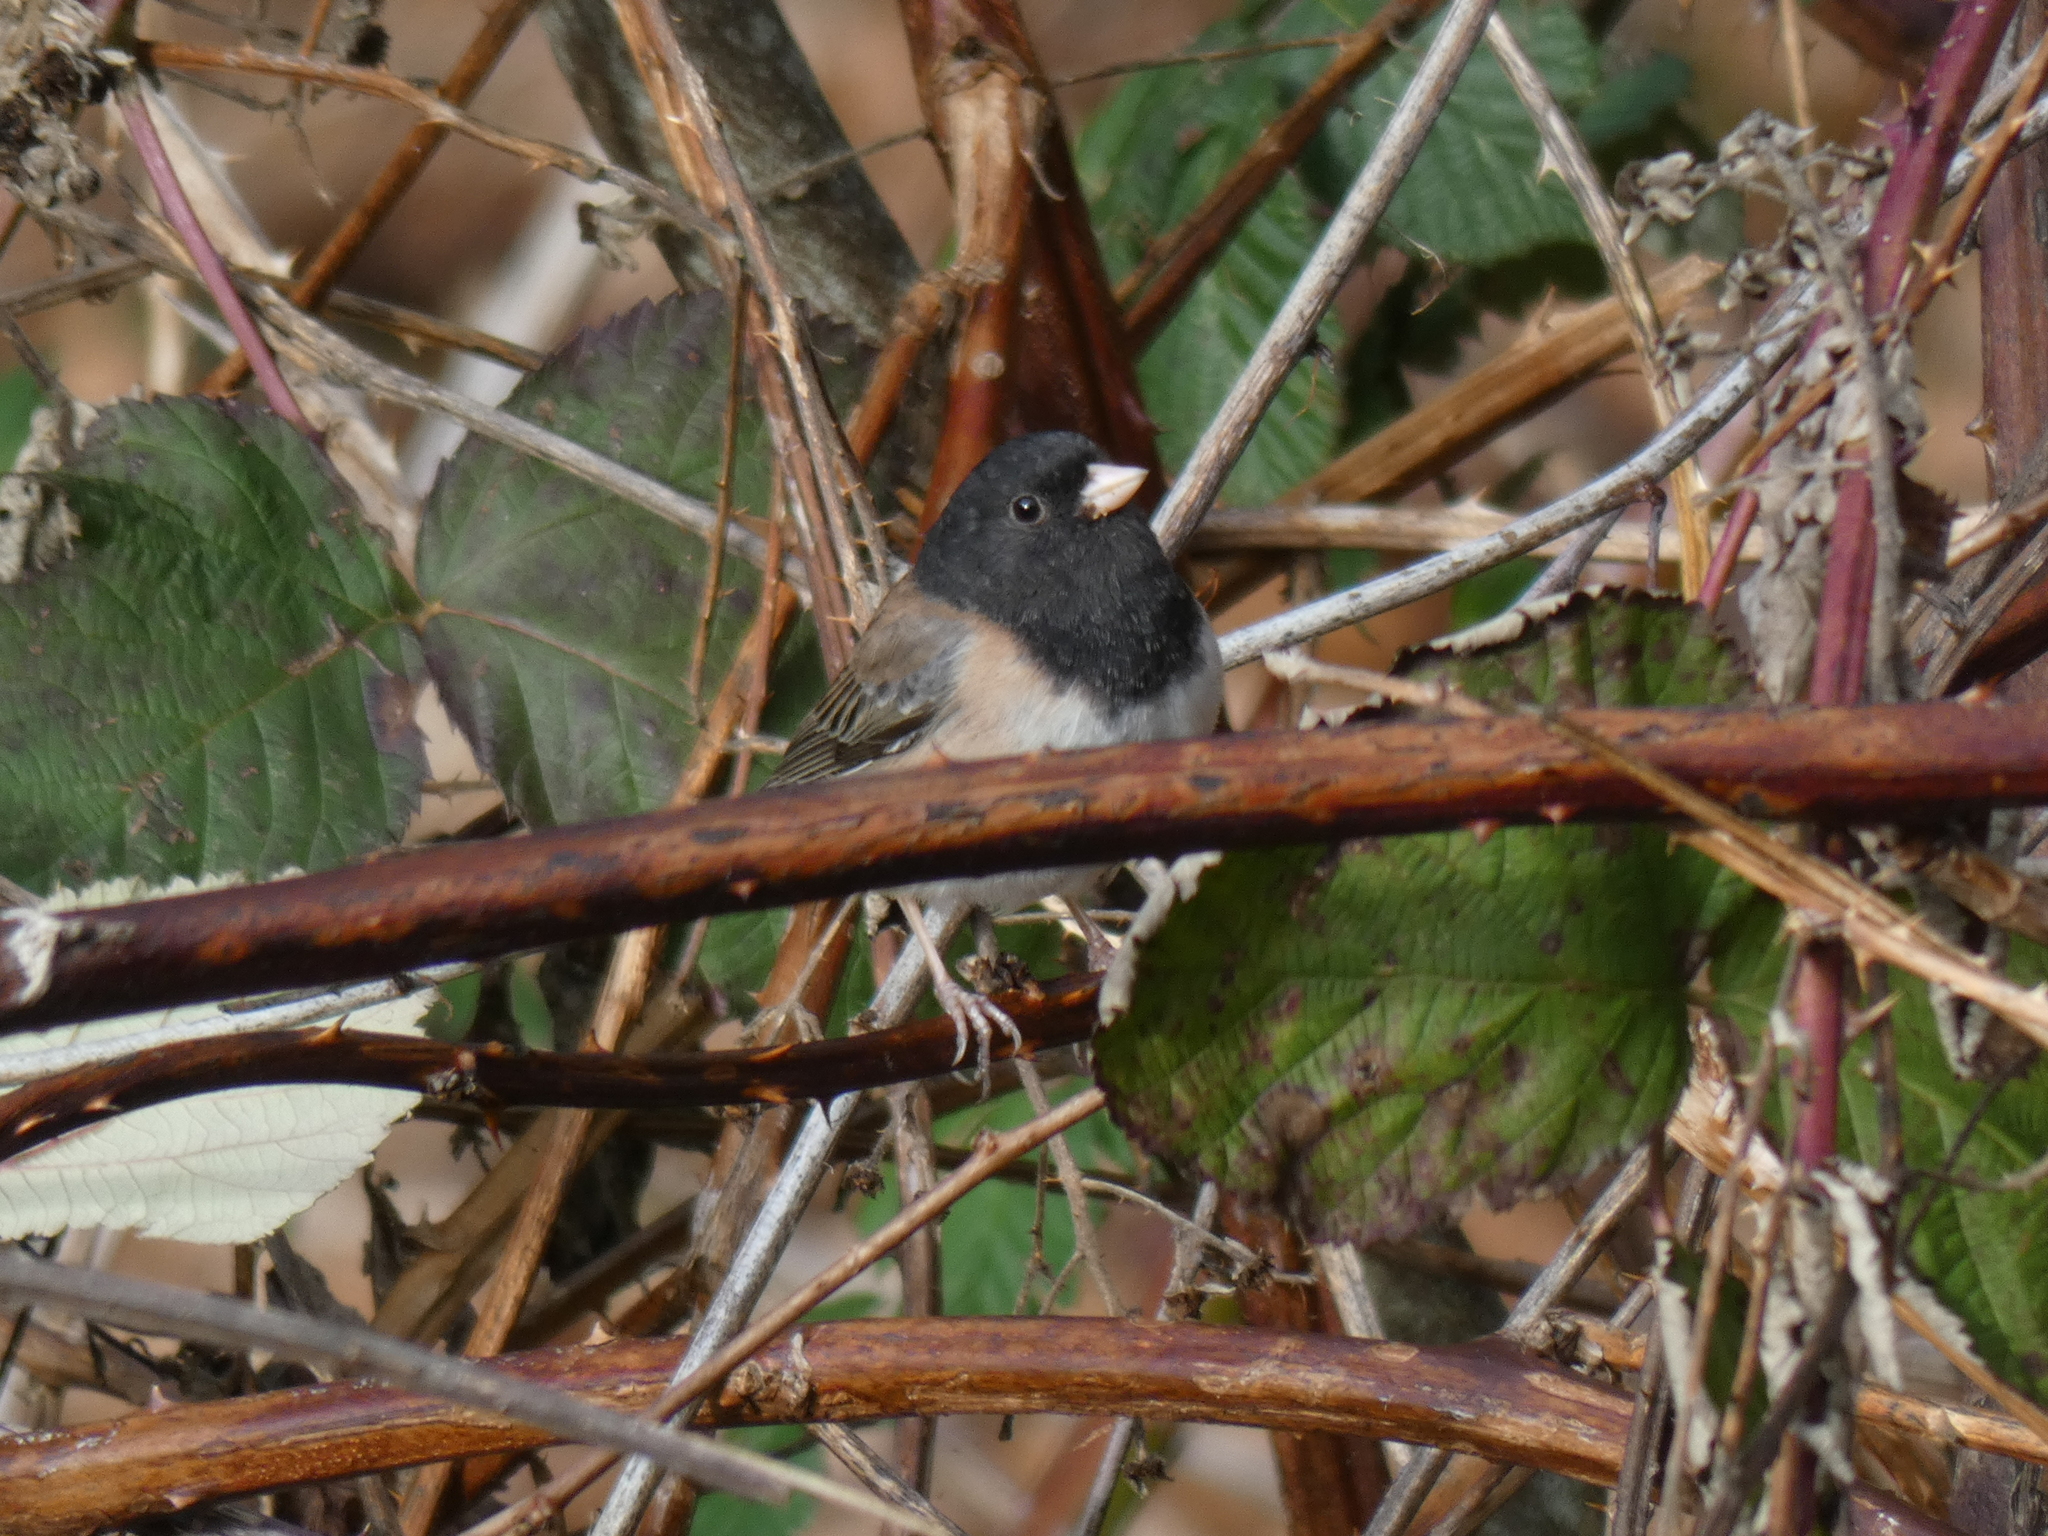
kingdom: Animalia
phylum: Chordata
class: Aves
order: Passeriformes
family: Passerellidae
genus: Junco
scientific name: Junco hyemalis
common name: Dark-eyed junco
